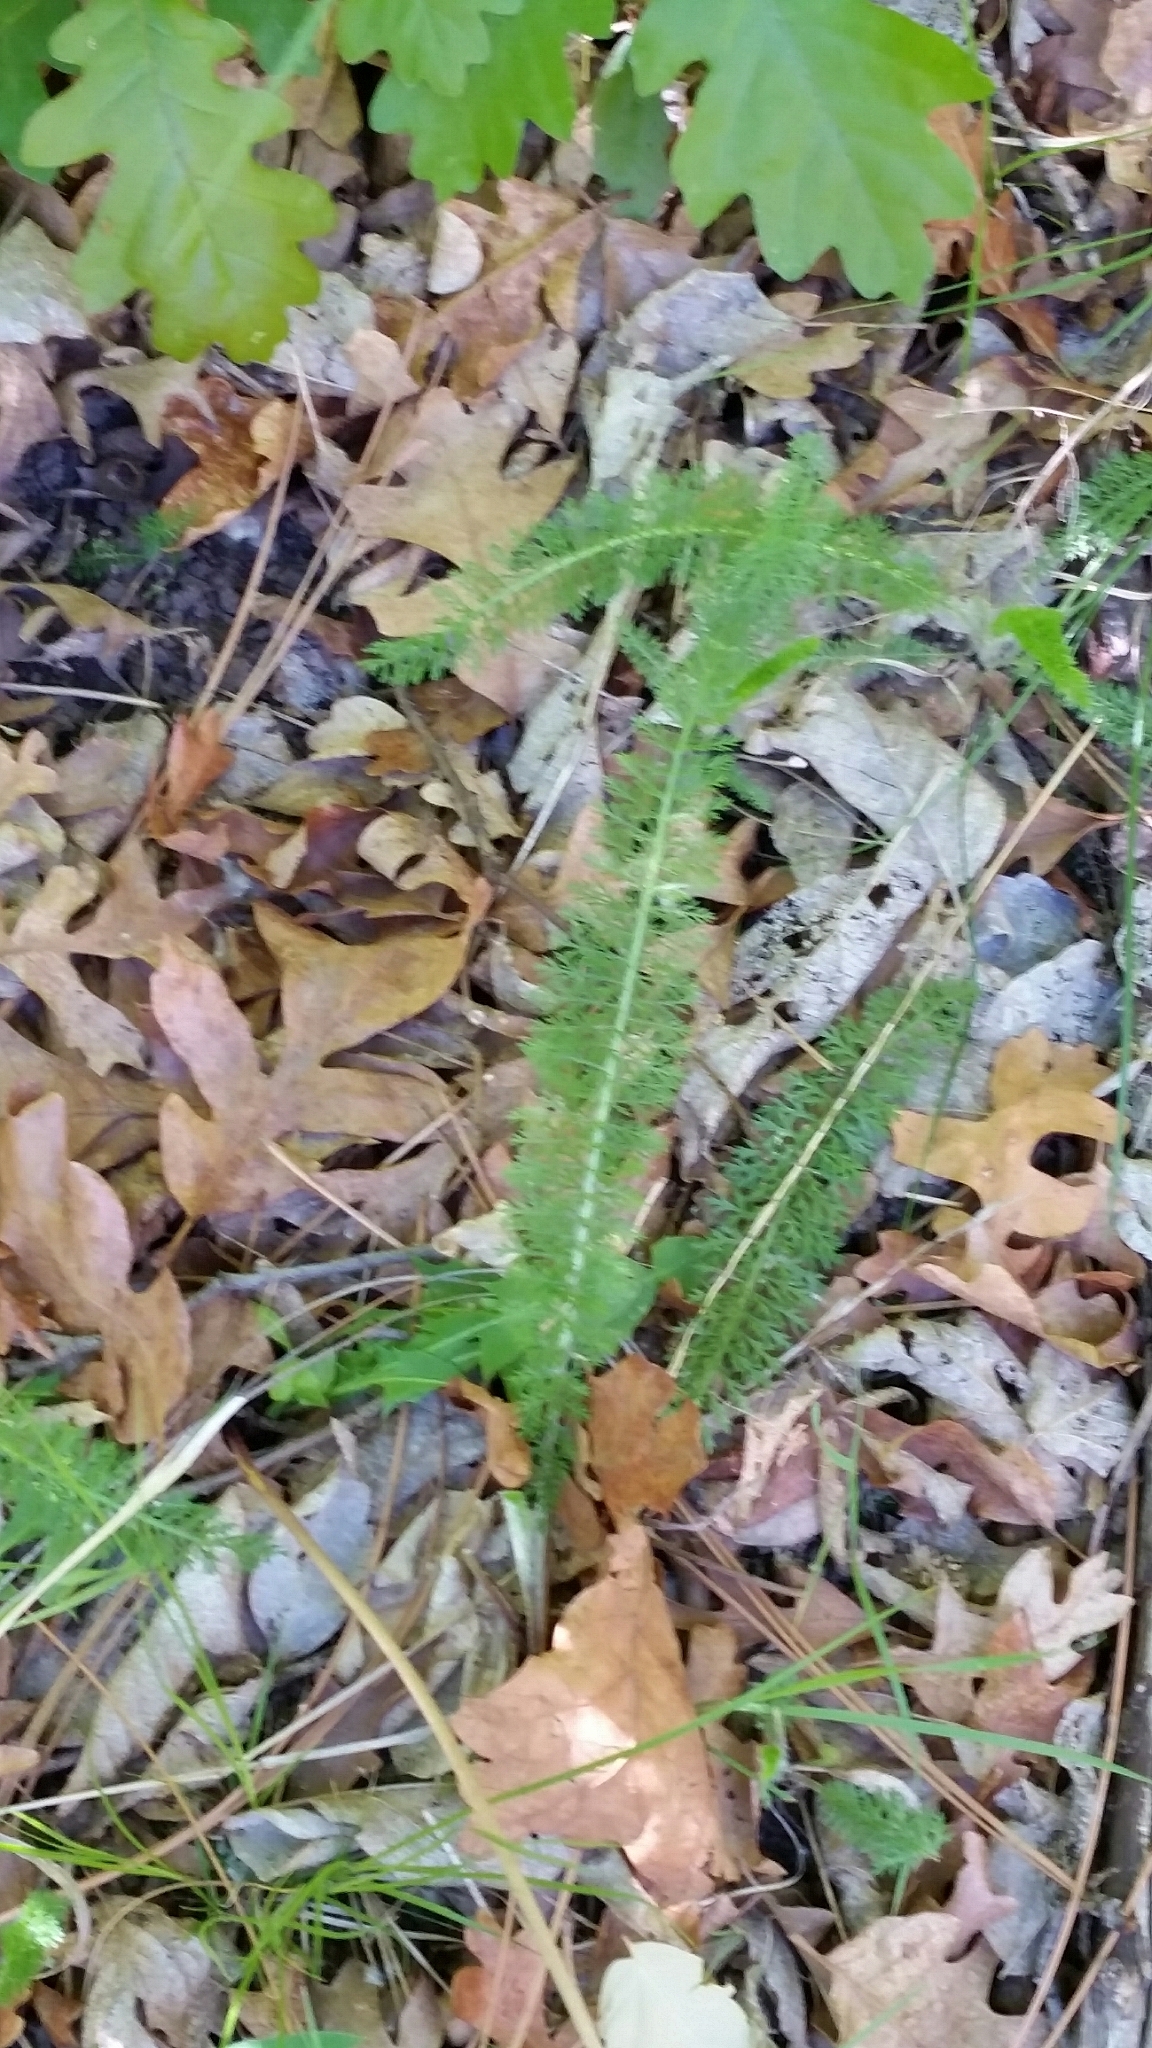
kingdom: Plantae
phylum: Tracheophyta
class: Magnoliopsida
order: Asterales
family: Asteraceae
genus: Achillea
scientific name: Achillea millefolium
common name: Yarrow
